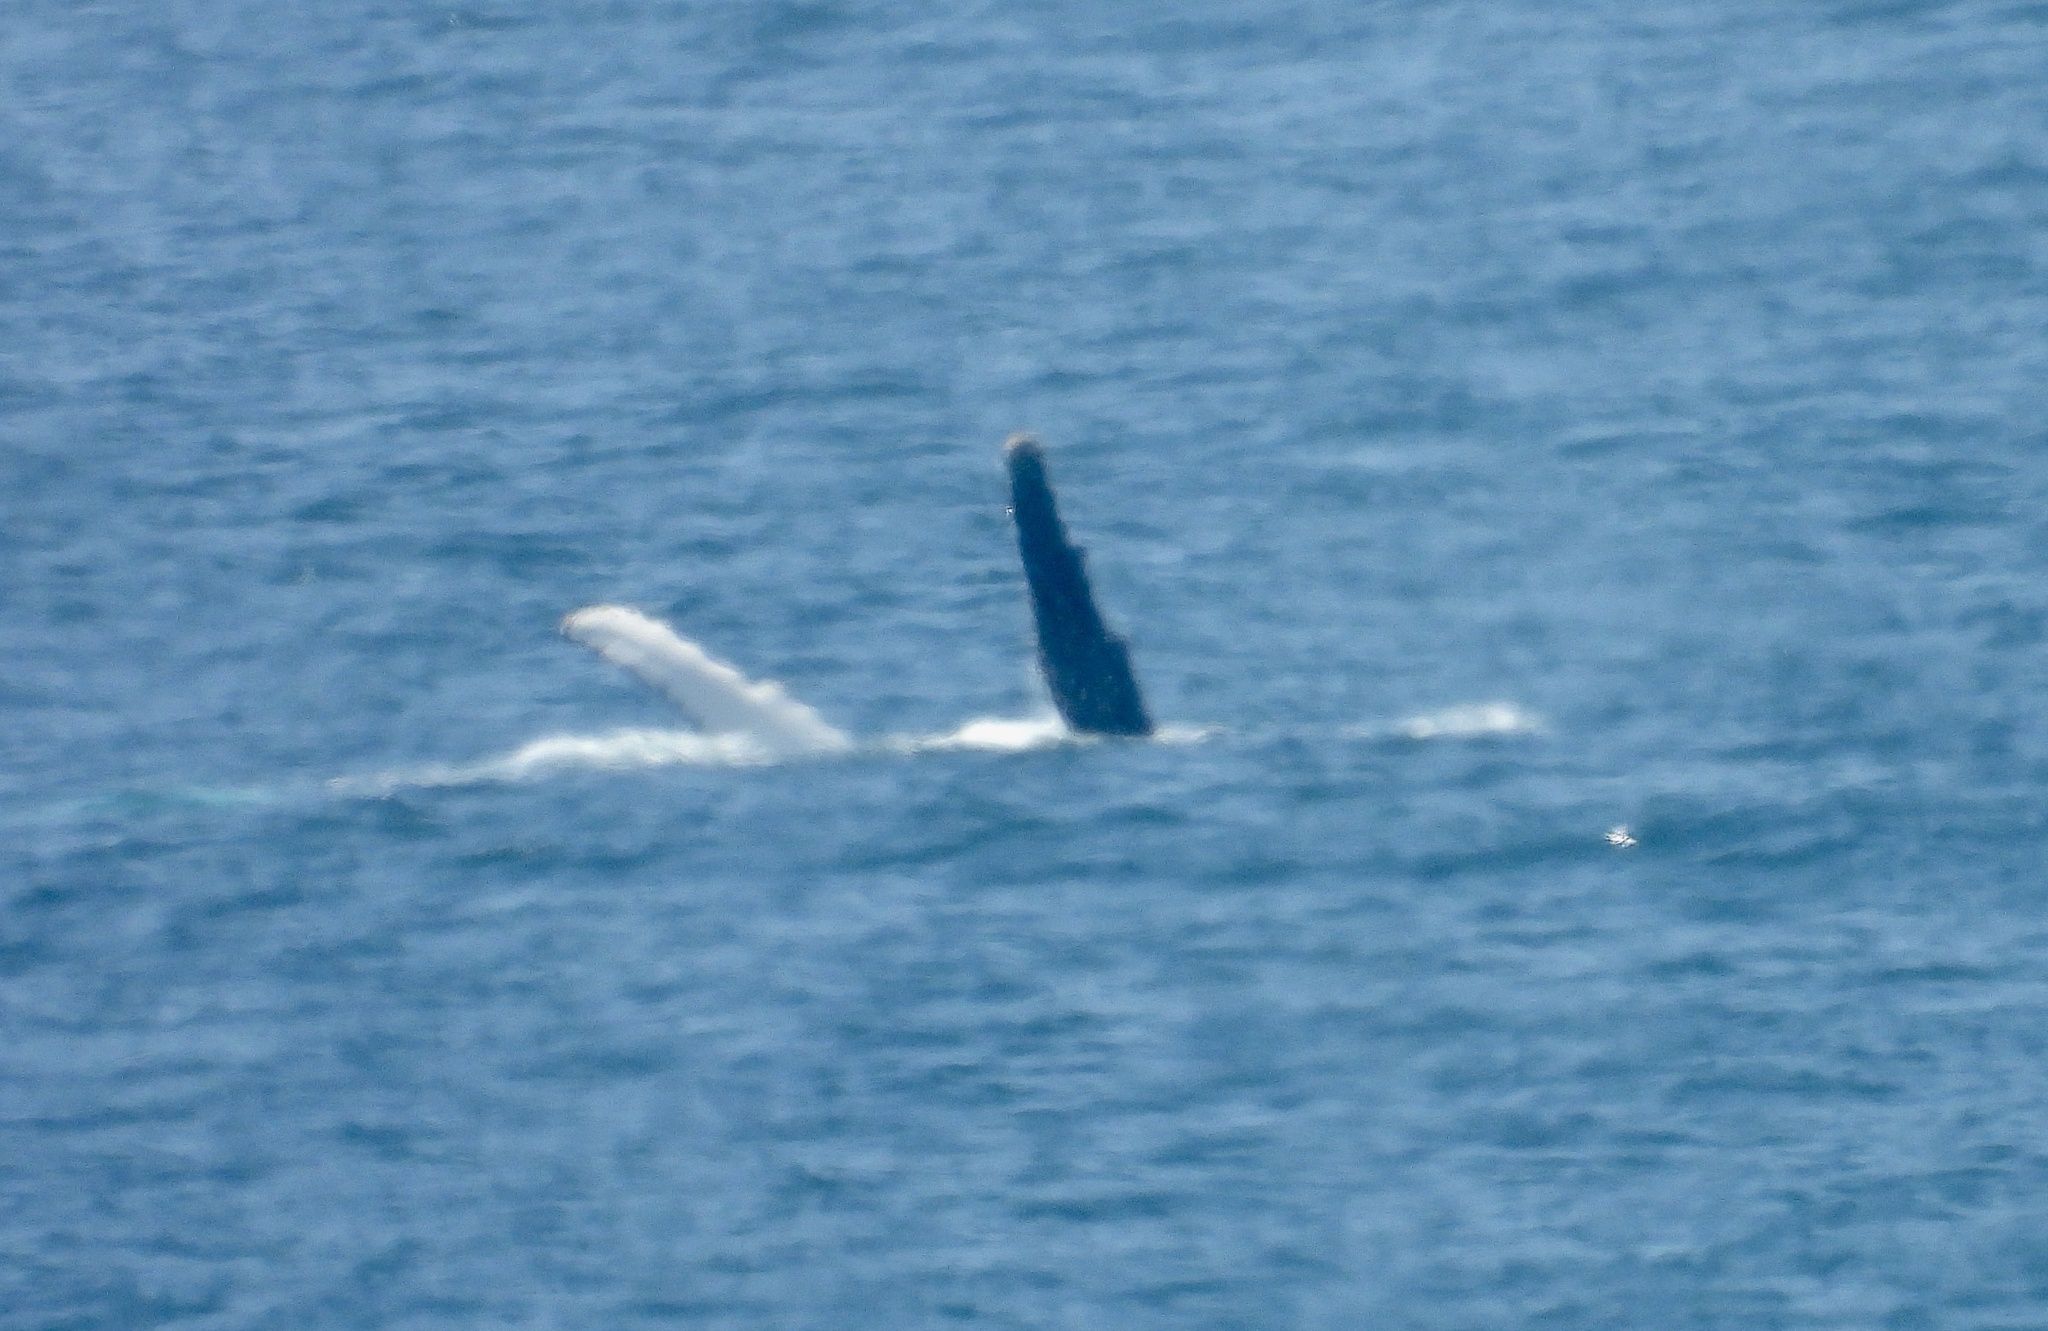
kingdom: Animalia
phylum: Chordata
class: Mammalia
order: Cetacea
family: Balaenopteridae
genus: Megaptera
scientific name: Megaptera novaeangliae
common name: Humpback whale
